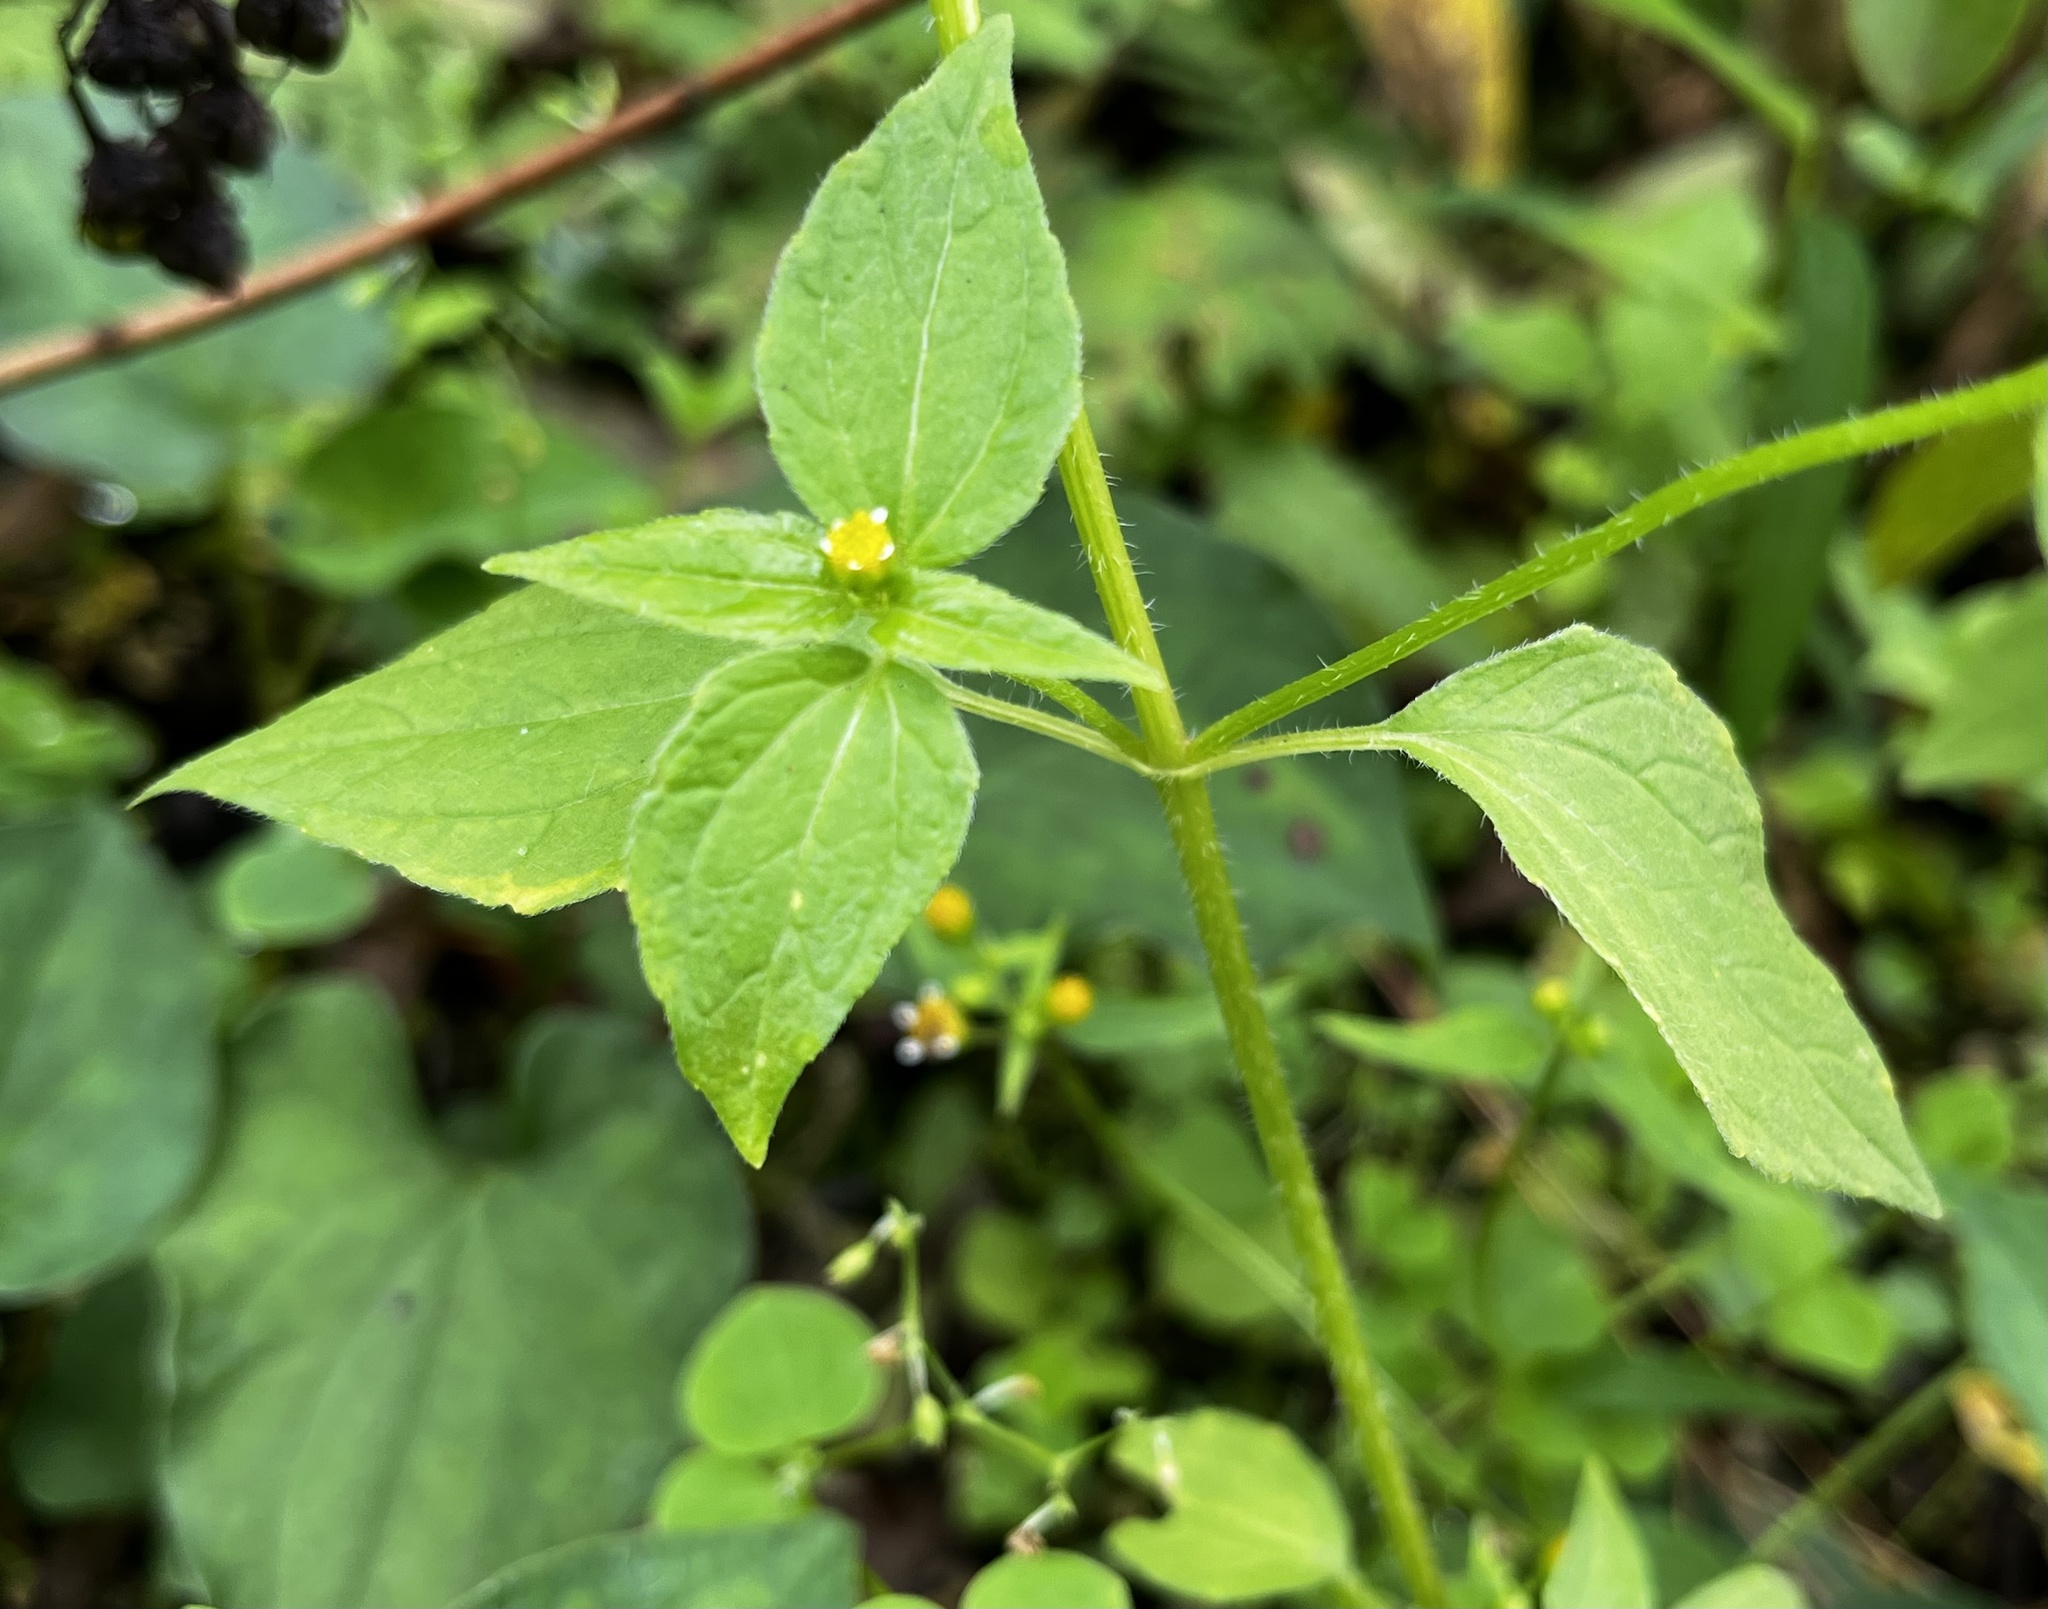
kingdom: Plantae
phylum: Tracheophyta
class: Magnoliopsida
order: Asterales
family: Asteraceae
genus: Galinsoga
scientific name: Galinsoga parviflora
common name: Gallant soldier
